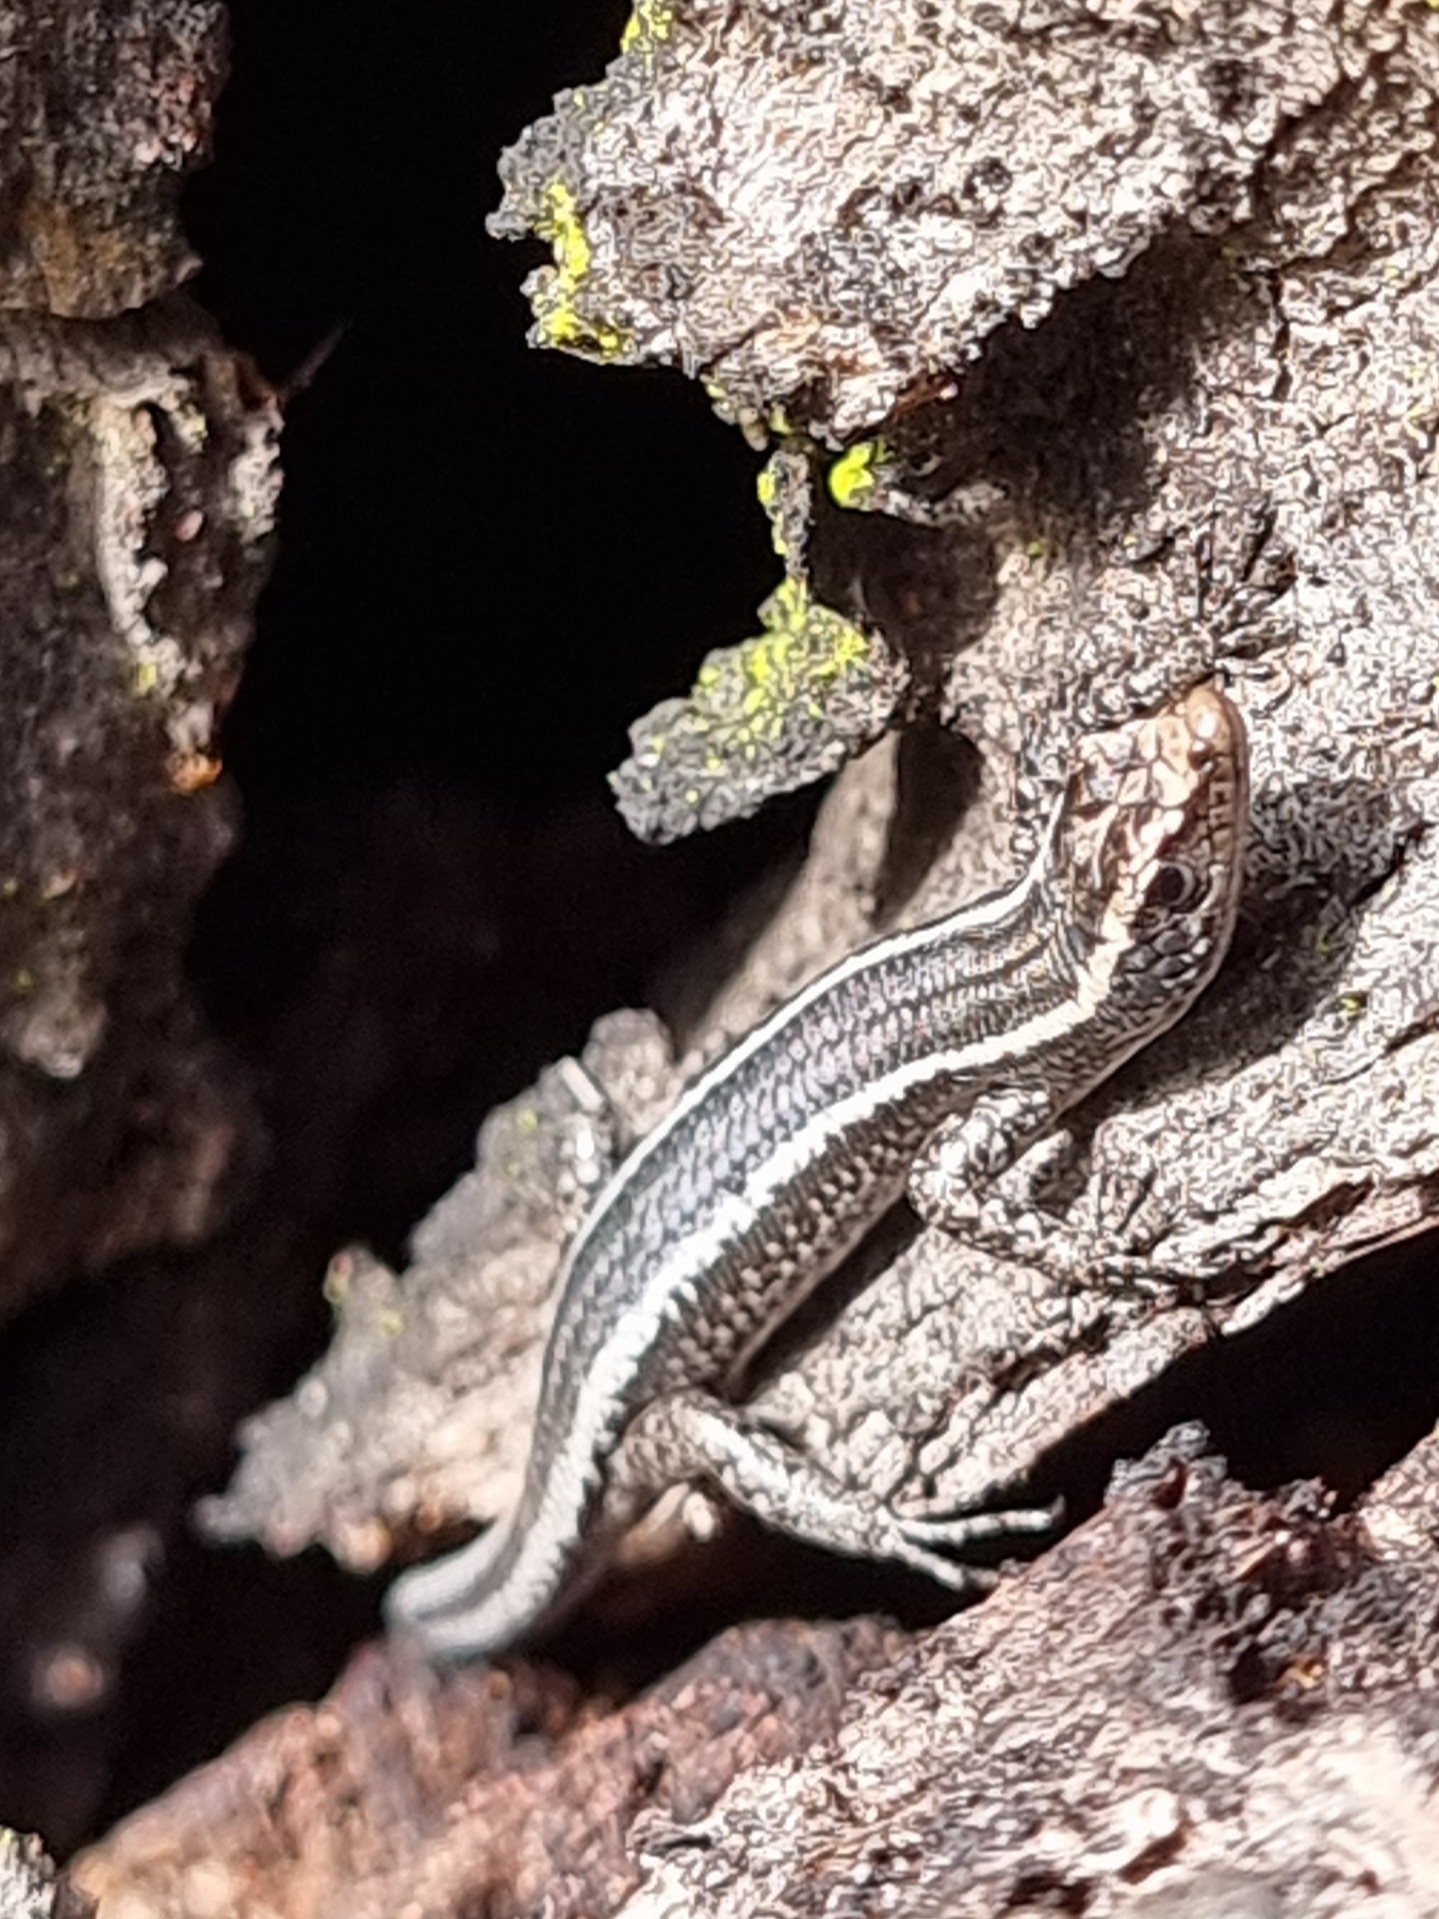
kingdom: Animalia
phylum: Chordata
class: Squamata
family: Scincidae
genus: Cryptoblepharus
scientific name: Cryptoblepharus pulcher
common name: Elegant snake-eyed skink
